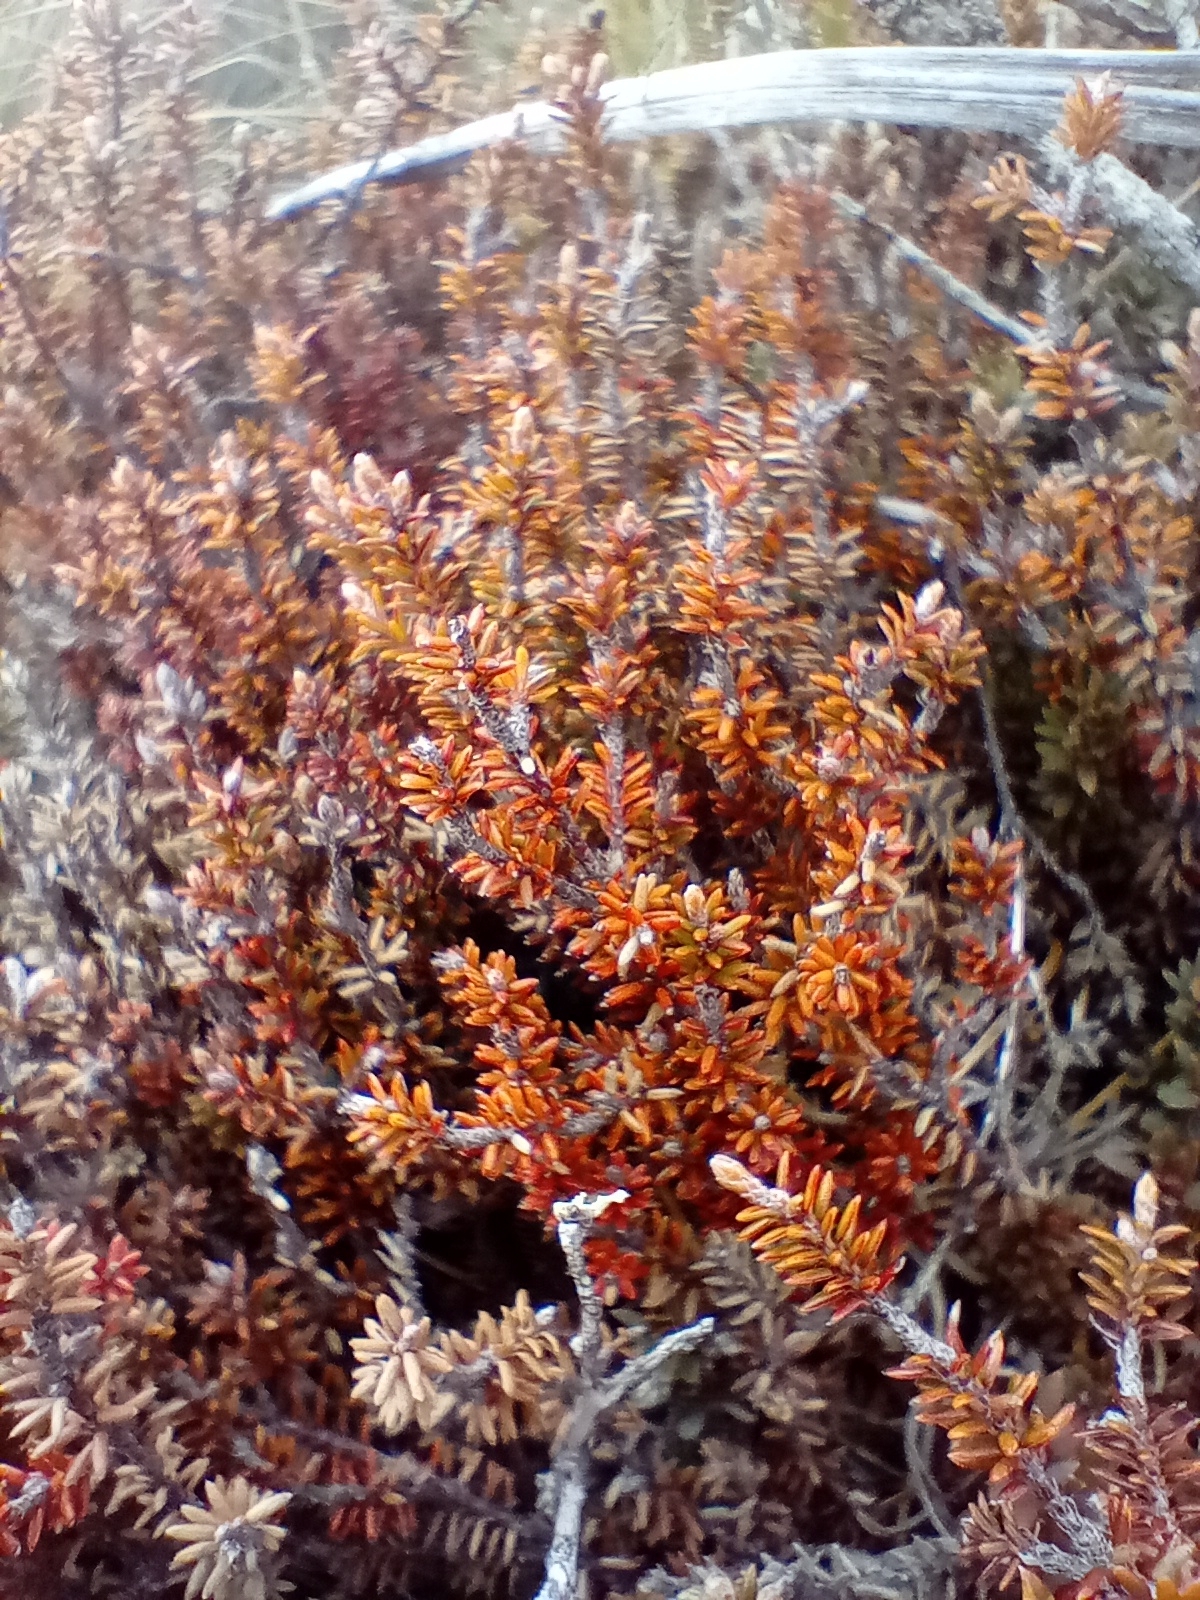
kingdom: Plantae
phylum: Tracheophyta
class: Magnoliopsida
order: Ericales
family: Ericaceae
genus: Androstoma
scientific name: Androstoma empetrifolia
